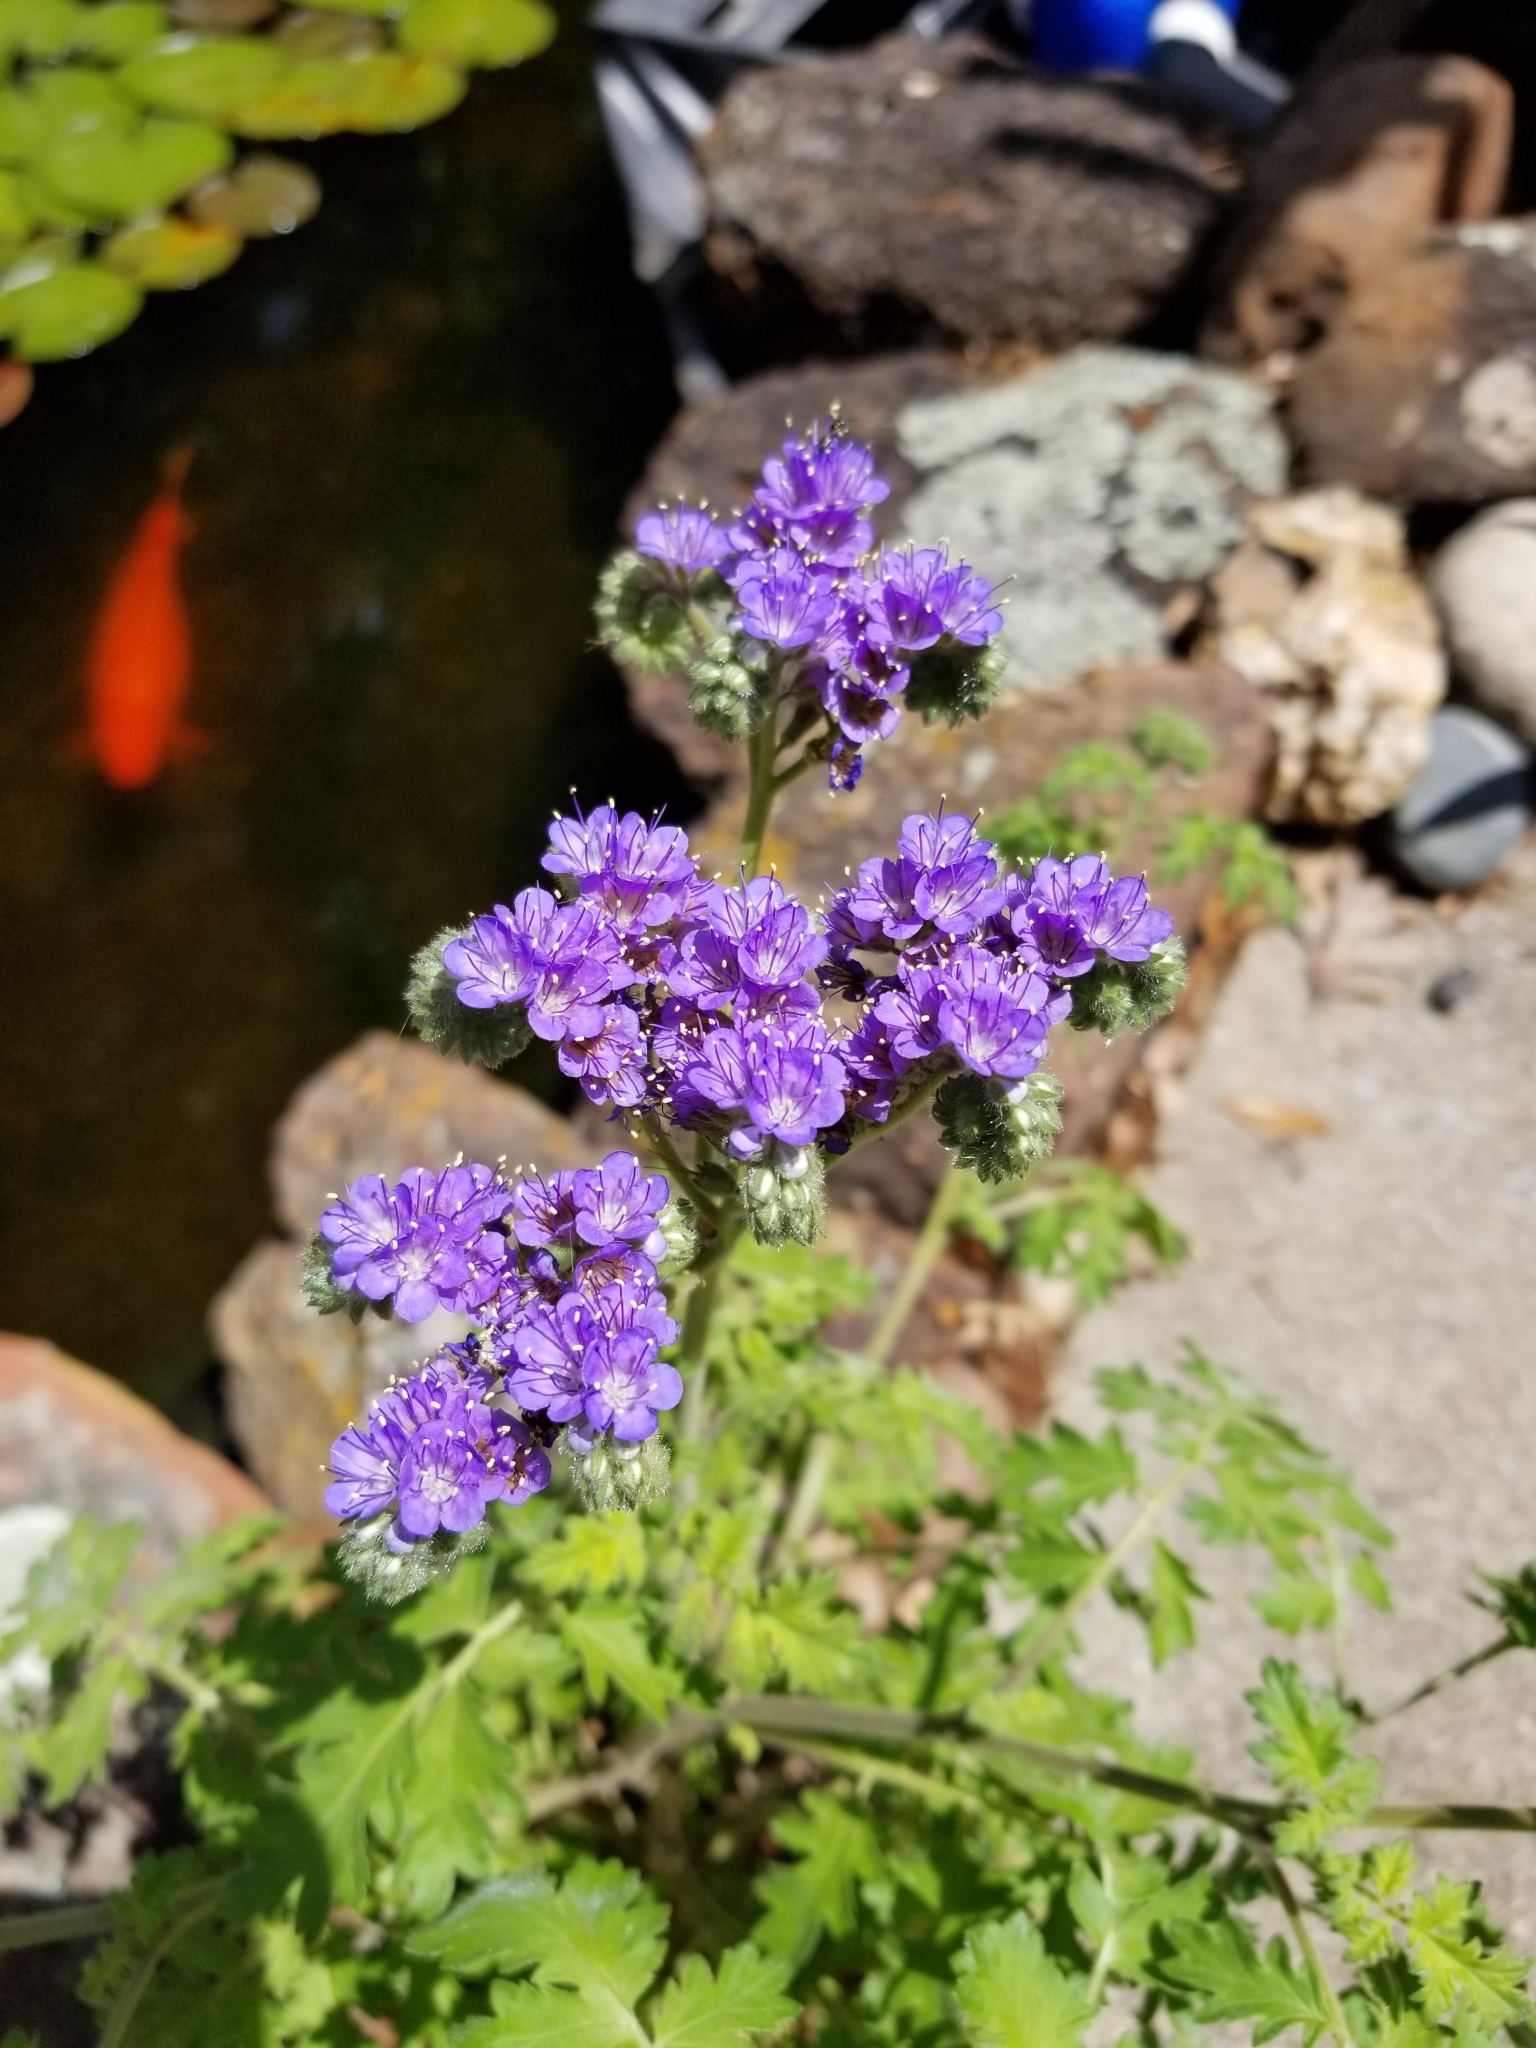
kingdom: Plantae
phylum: Tracheophyta
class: Magnoliopsida
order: Boraginales
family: Hydrophyllaceae
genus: Phacelia
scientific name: Phacelia congesta
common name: Blue curls
